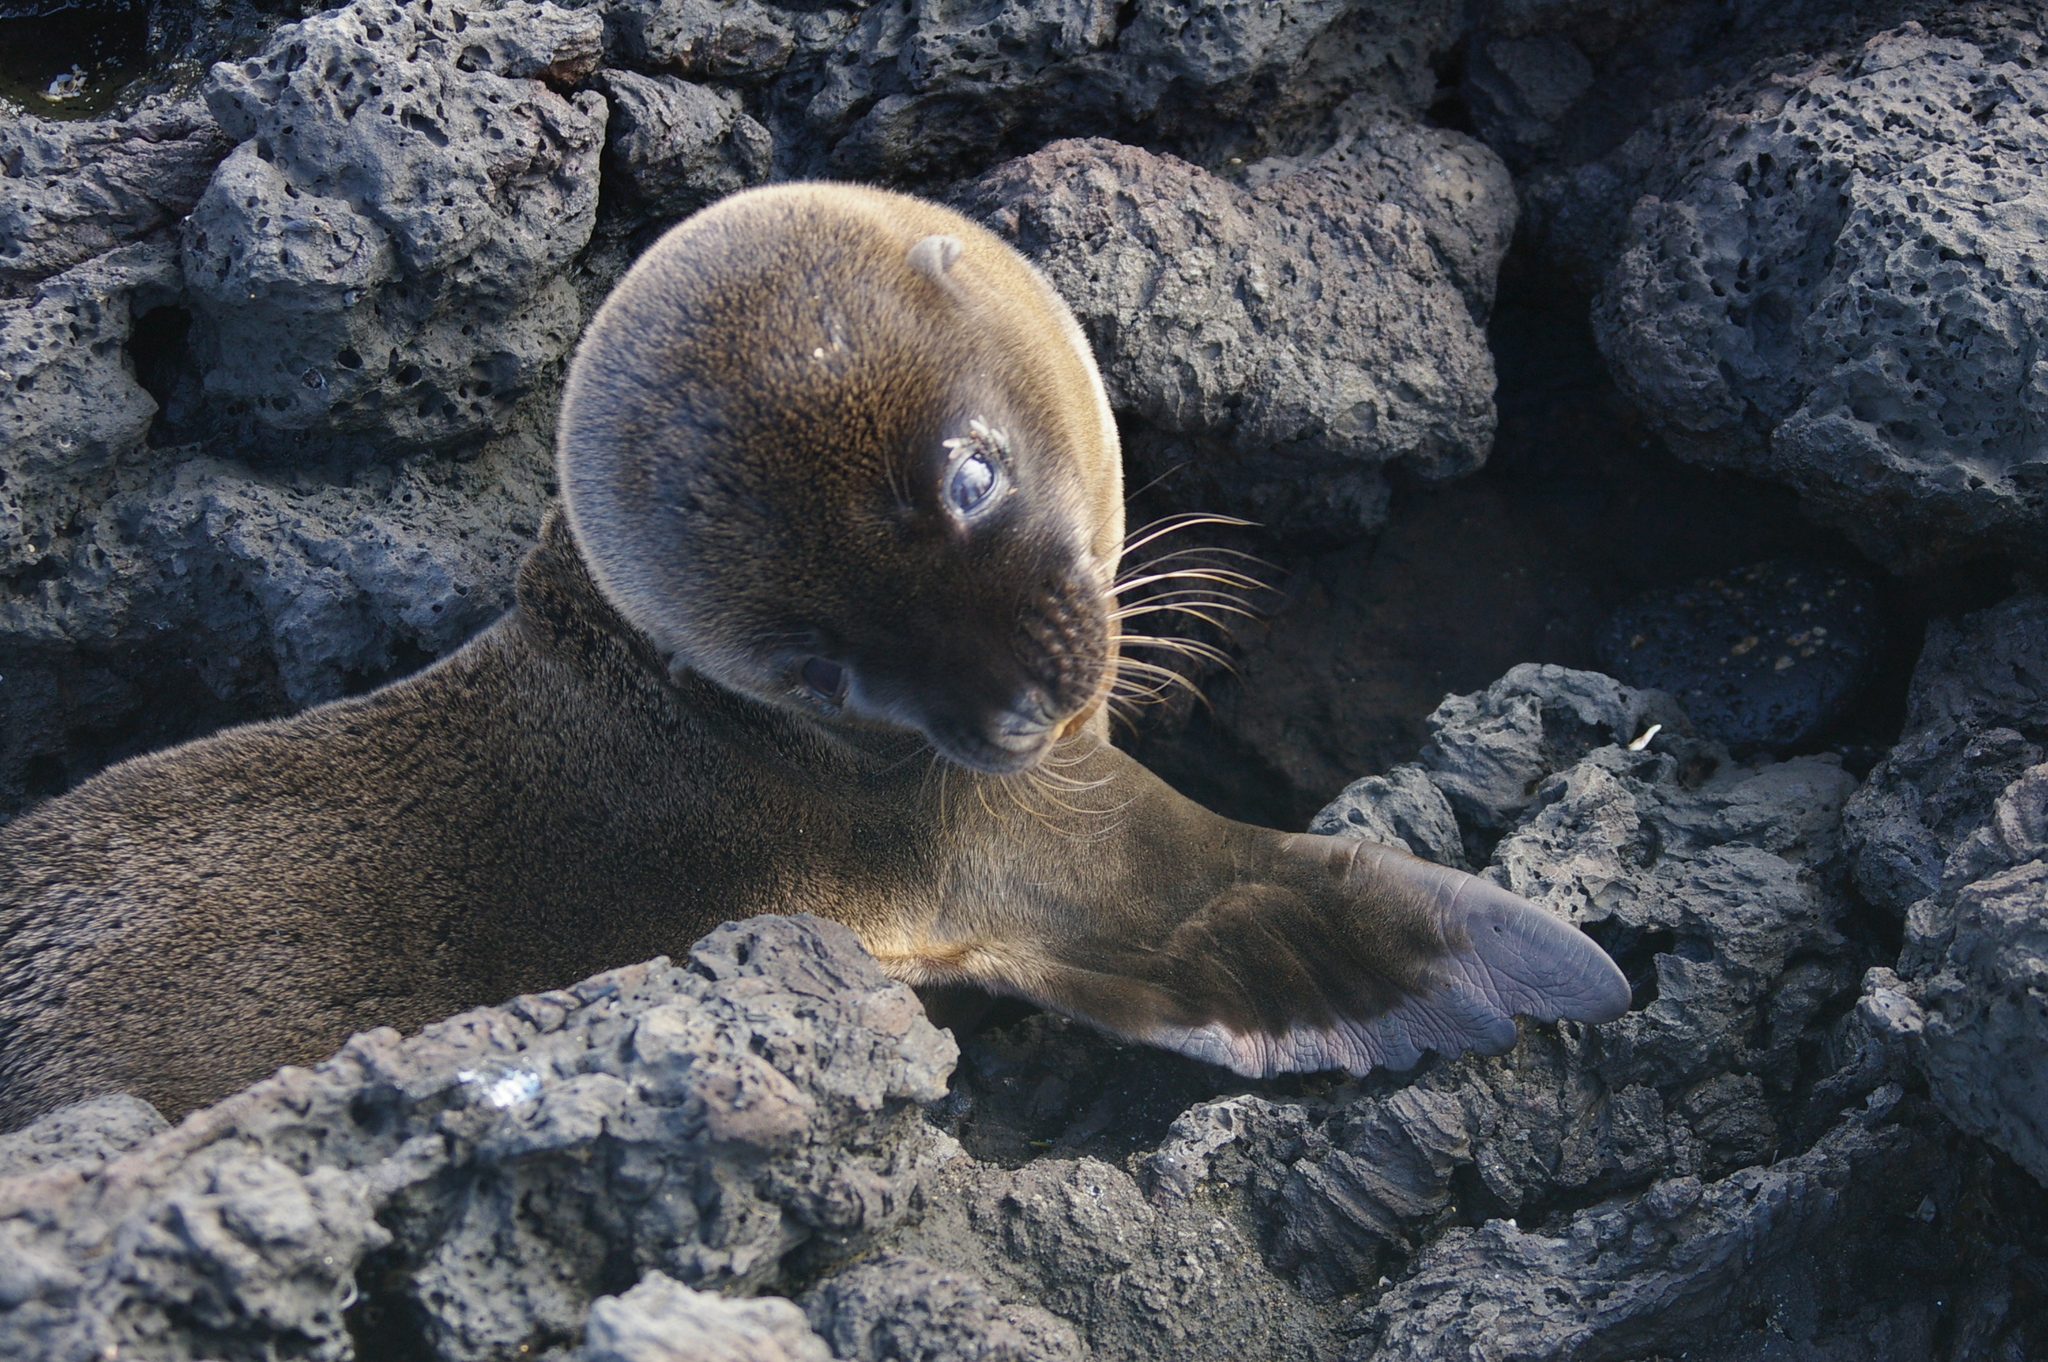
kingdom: Animalia
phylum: Chordata
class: Mammalia
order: Carnivora
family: Otariidae
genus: Arctocephalus
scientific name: Arctocephalus galapagoensis
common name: Galapagos fur seal
